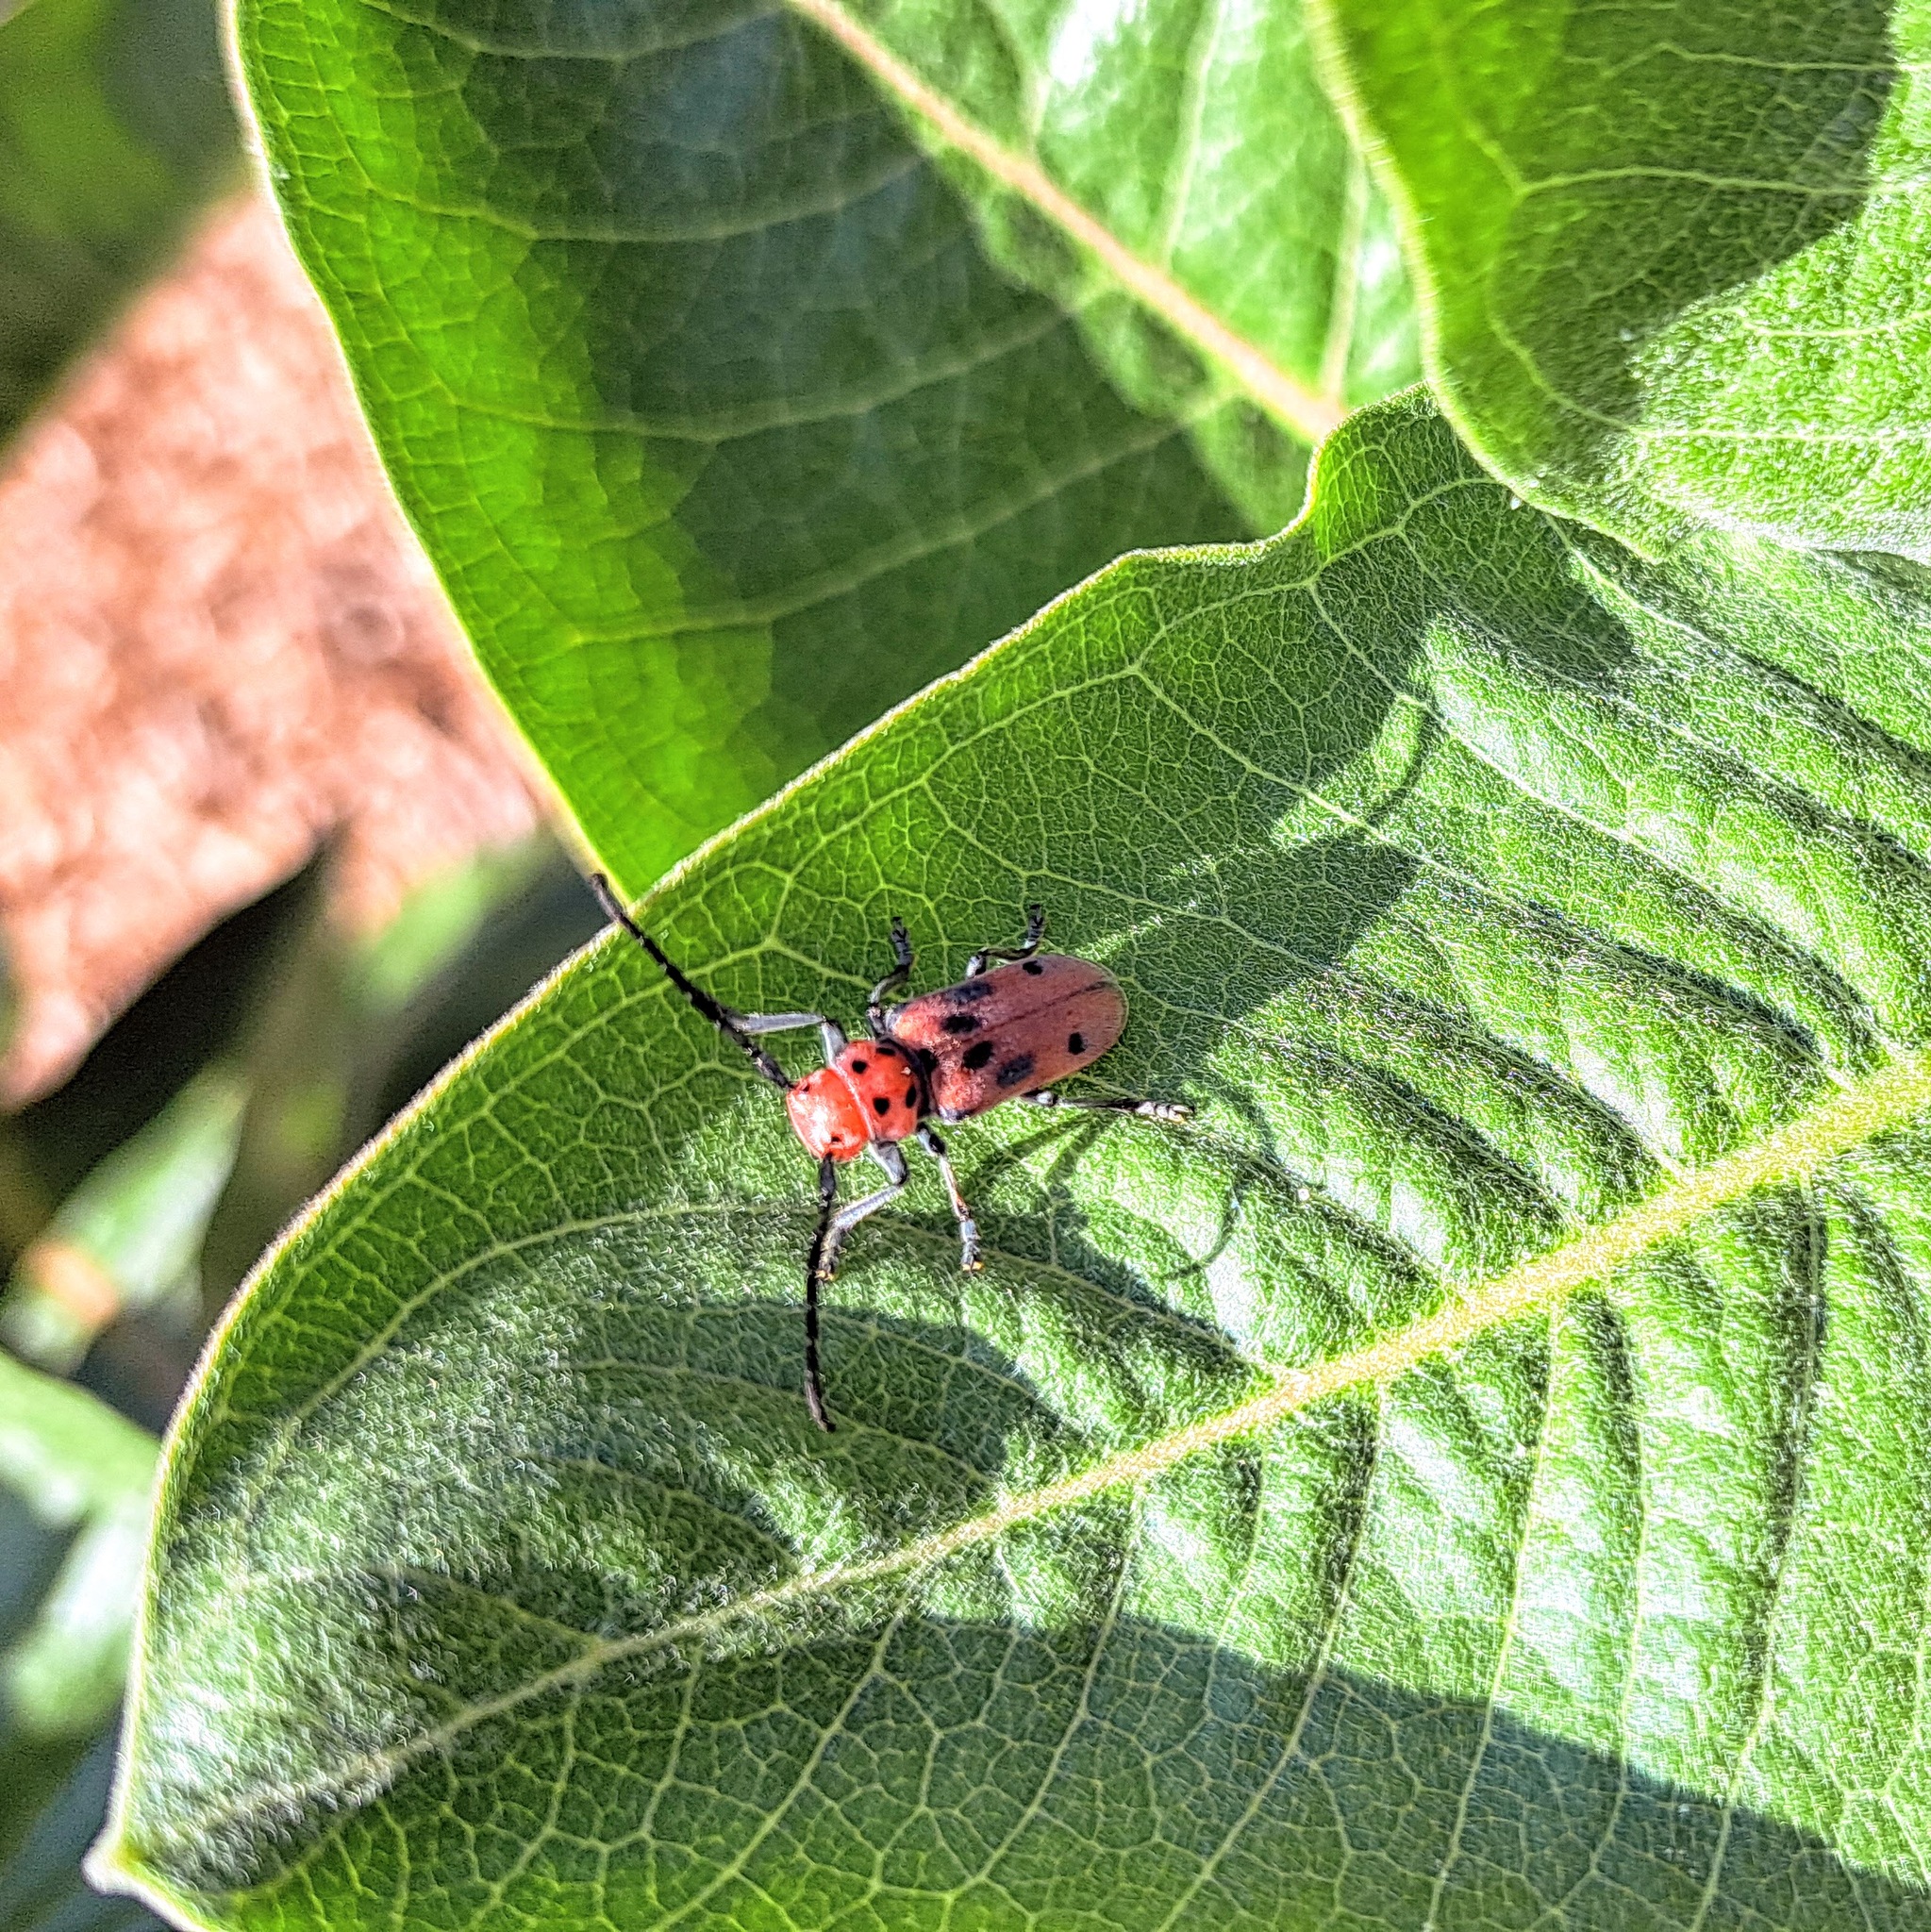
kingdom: Animalia
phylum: Arthropoda
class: Insecta
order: Coleoptera
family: Cerambycidae
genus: Tetraopes
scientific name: Tetraopes tetrophthalmus
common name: Red milkweed beetle
